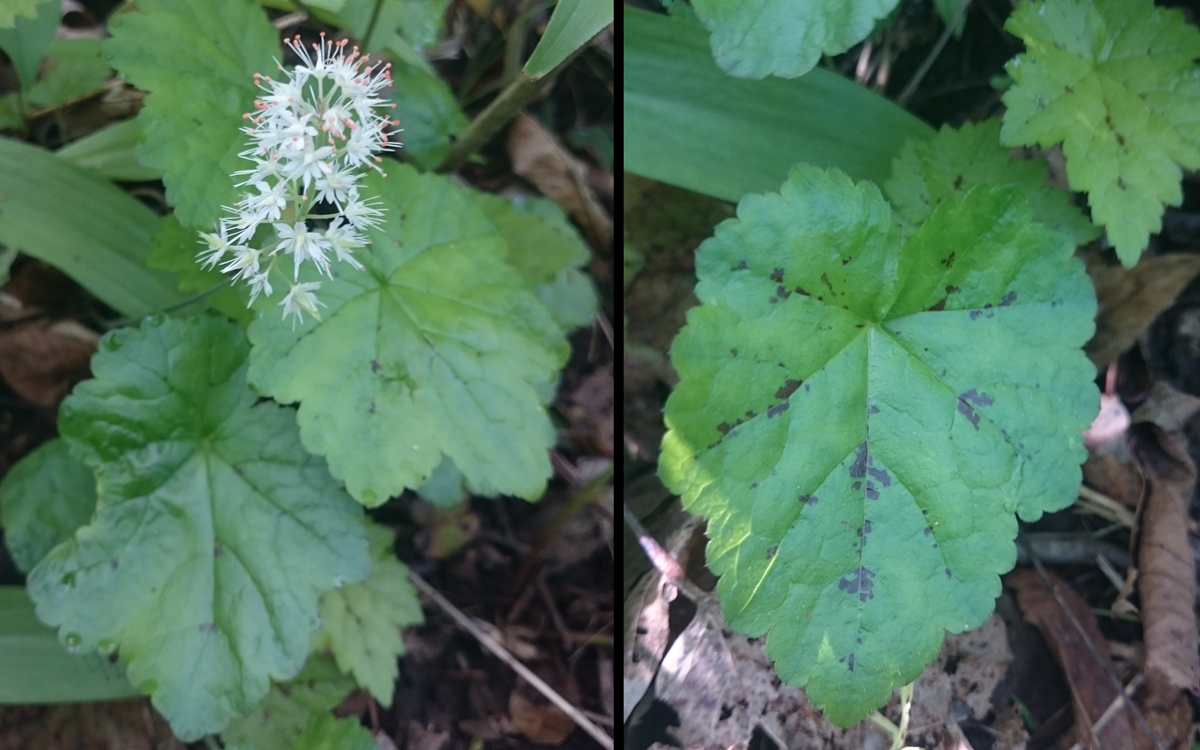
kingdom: Plantae
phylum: Tracheophyta
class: Magnoliopsida
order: Saxifragales
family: Saxifragaceae
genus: Tiarella
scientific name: Tiarella stolonifera
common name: Stoloniferous foamflower
